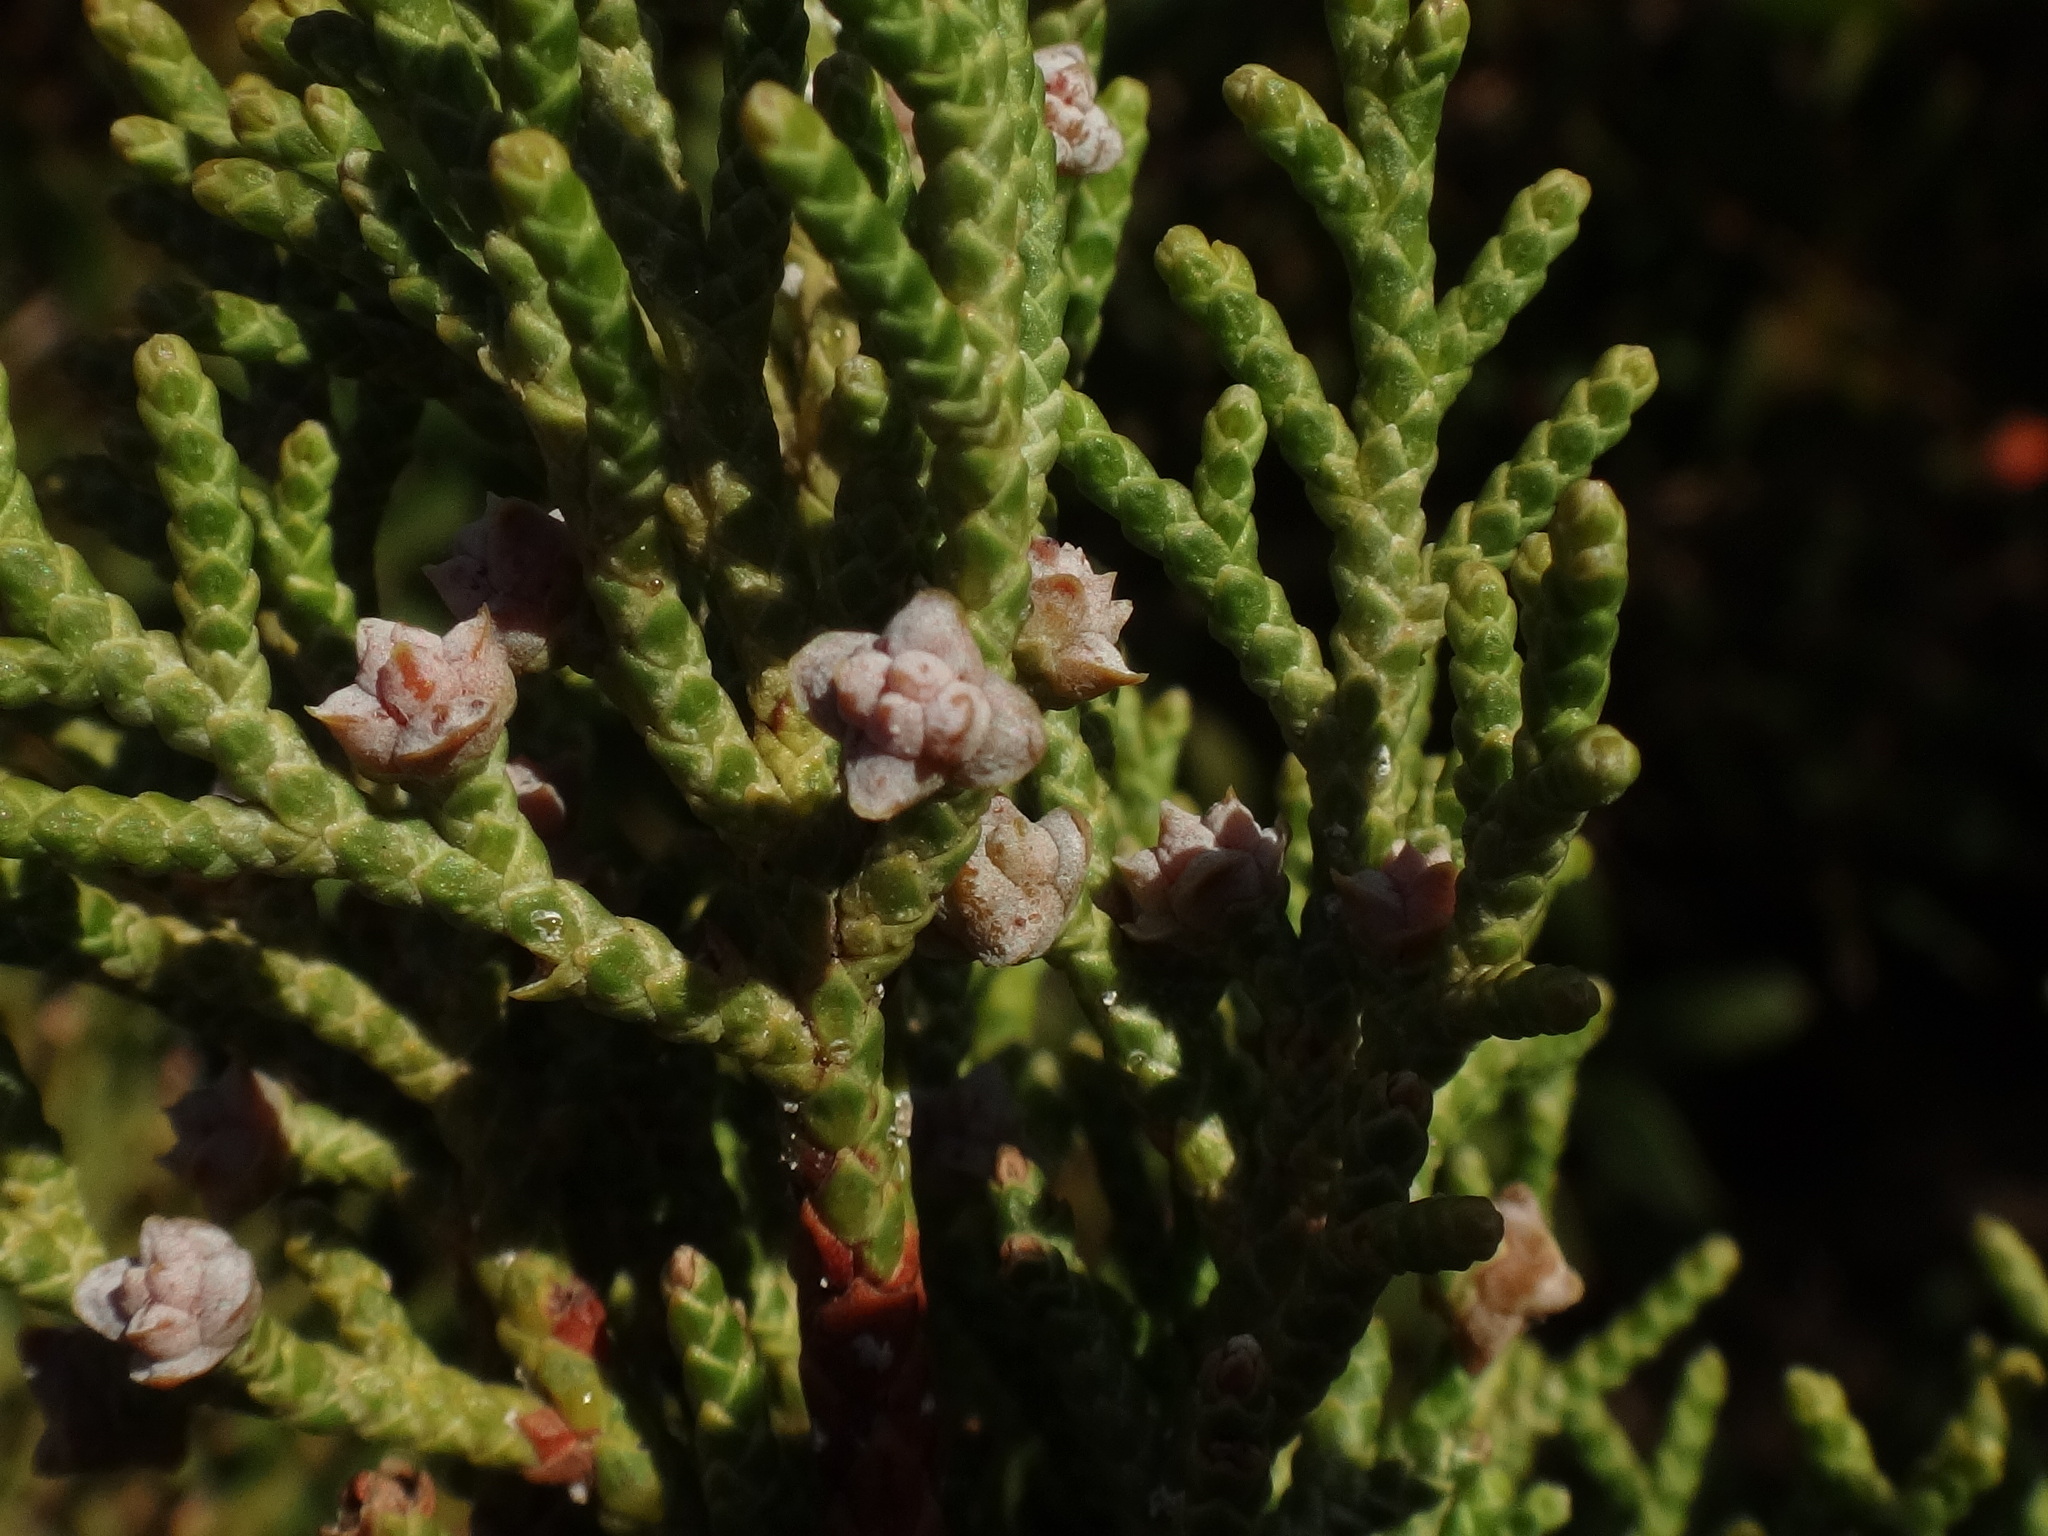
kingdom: Plantae
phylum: Tracheophyta
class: Pinopsida
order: Pinales
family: Cupressaceae
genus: Juniperus
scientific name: Juniperus phoenicea
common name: Phoenician juniper
